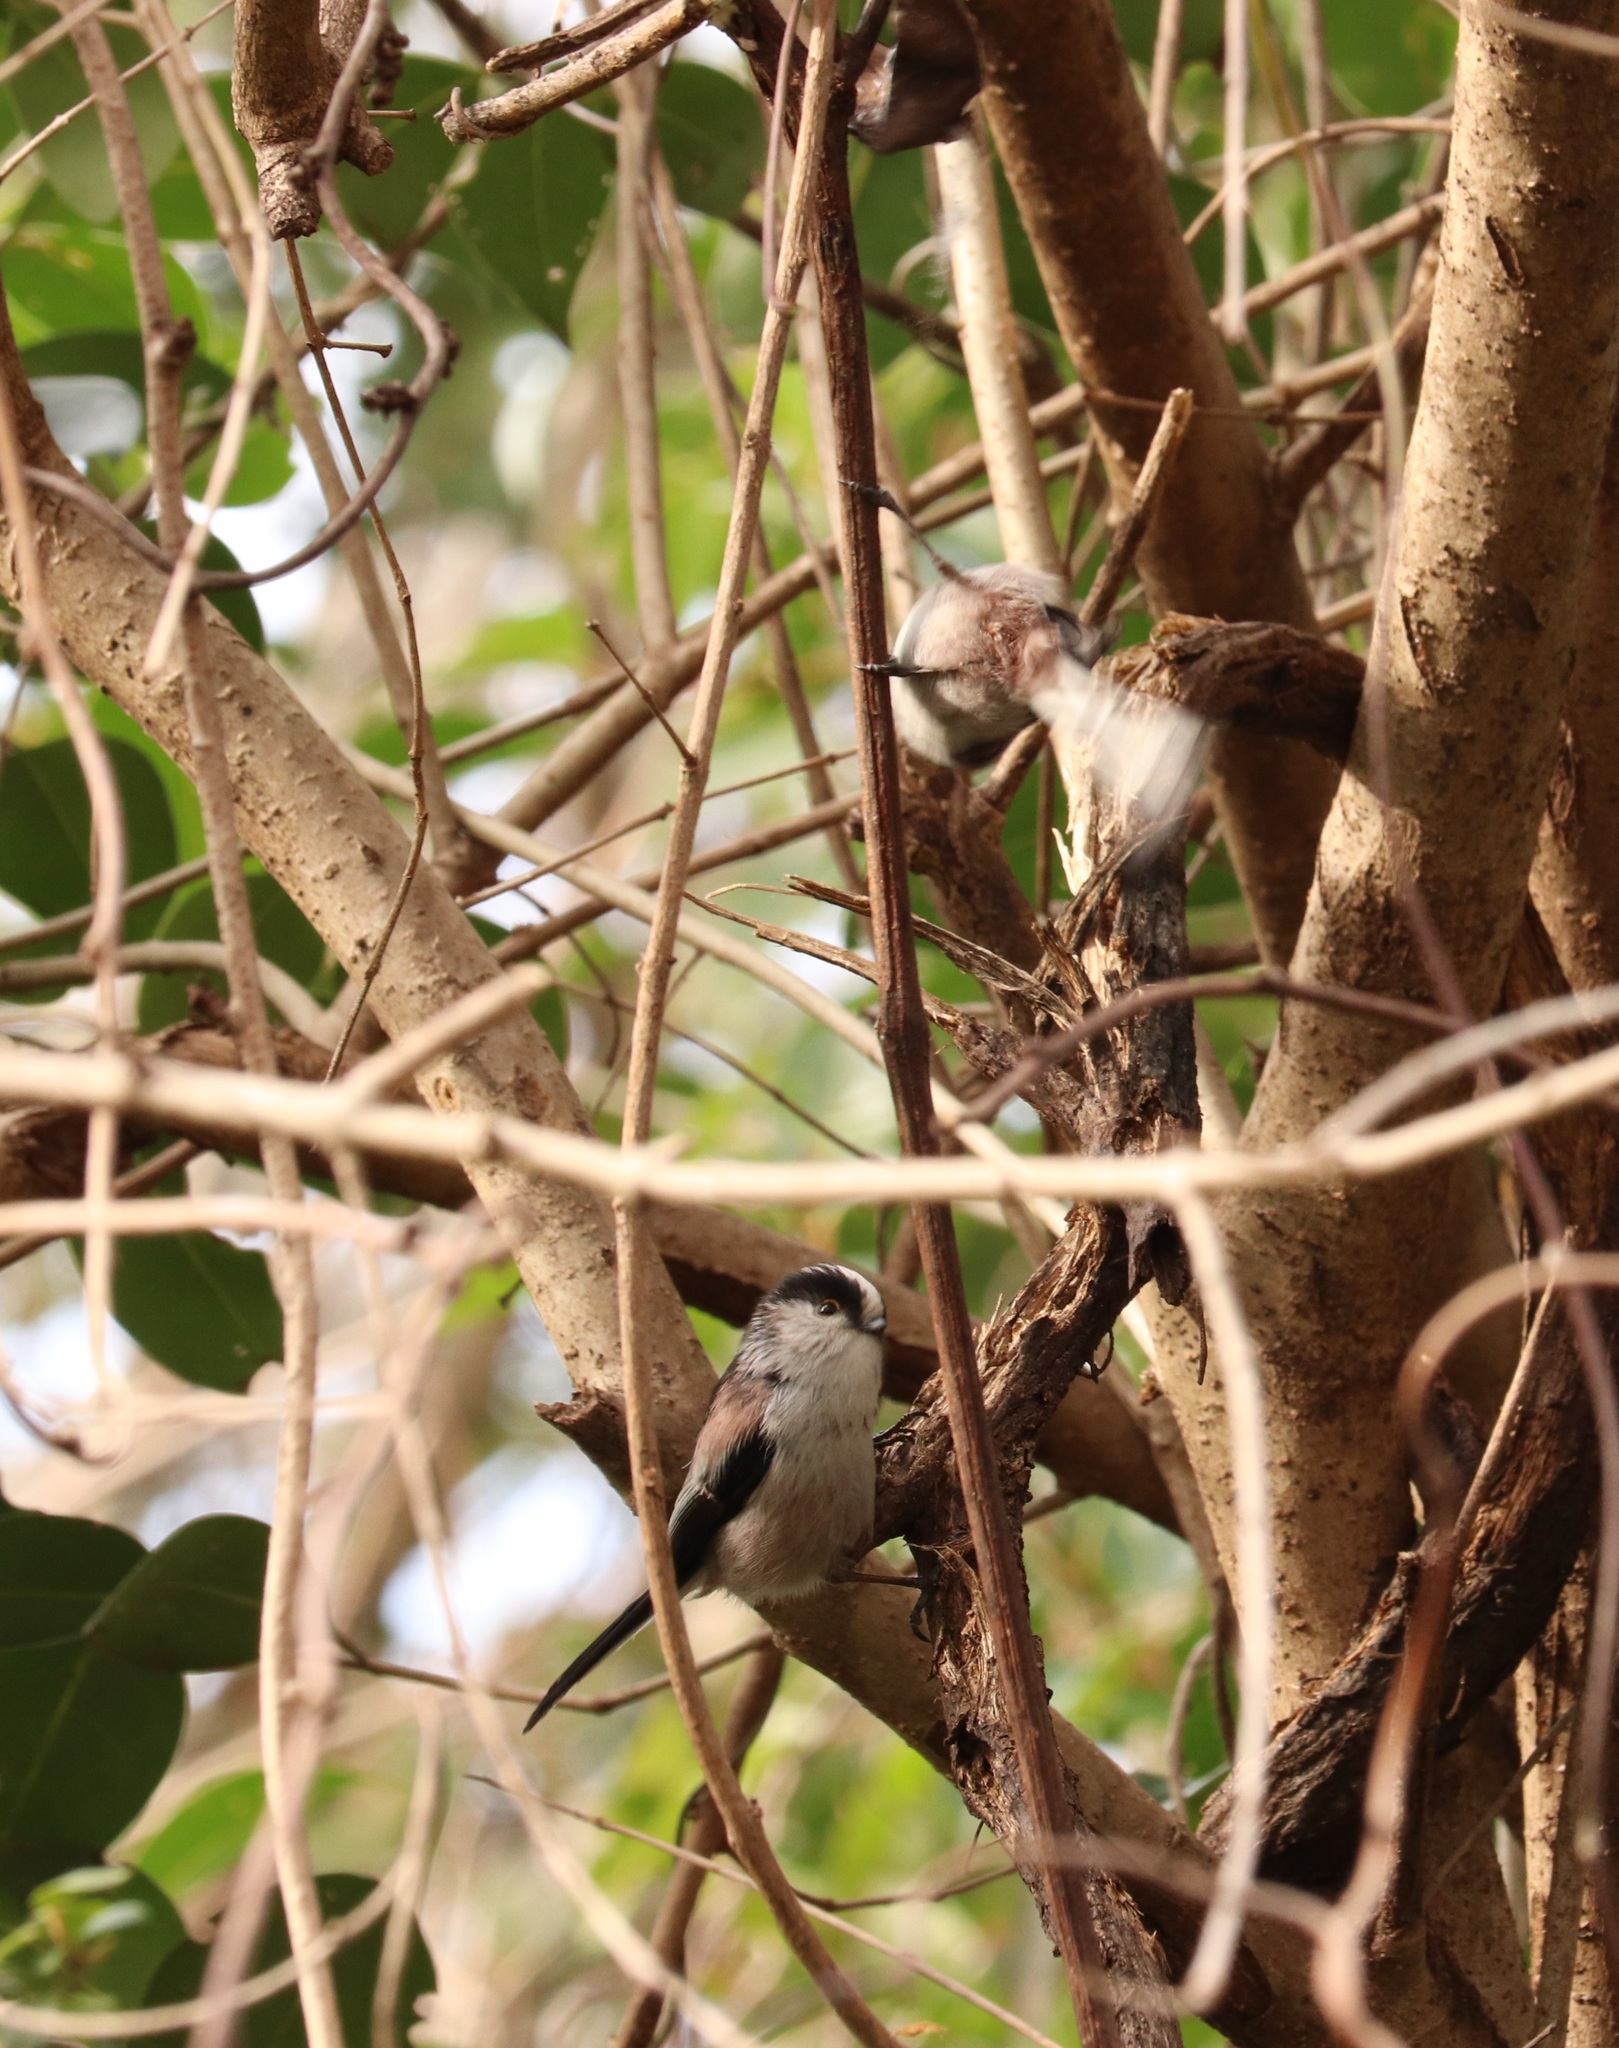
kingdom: Animalia
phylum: Chordata
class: Aves
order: Passeriformes
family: Aegithalidae
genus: Aegithalos
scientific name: Aegithalos caudatus
